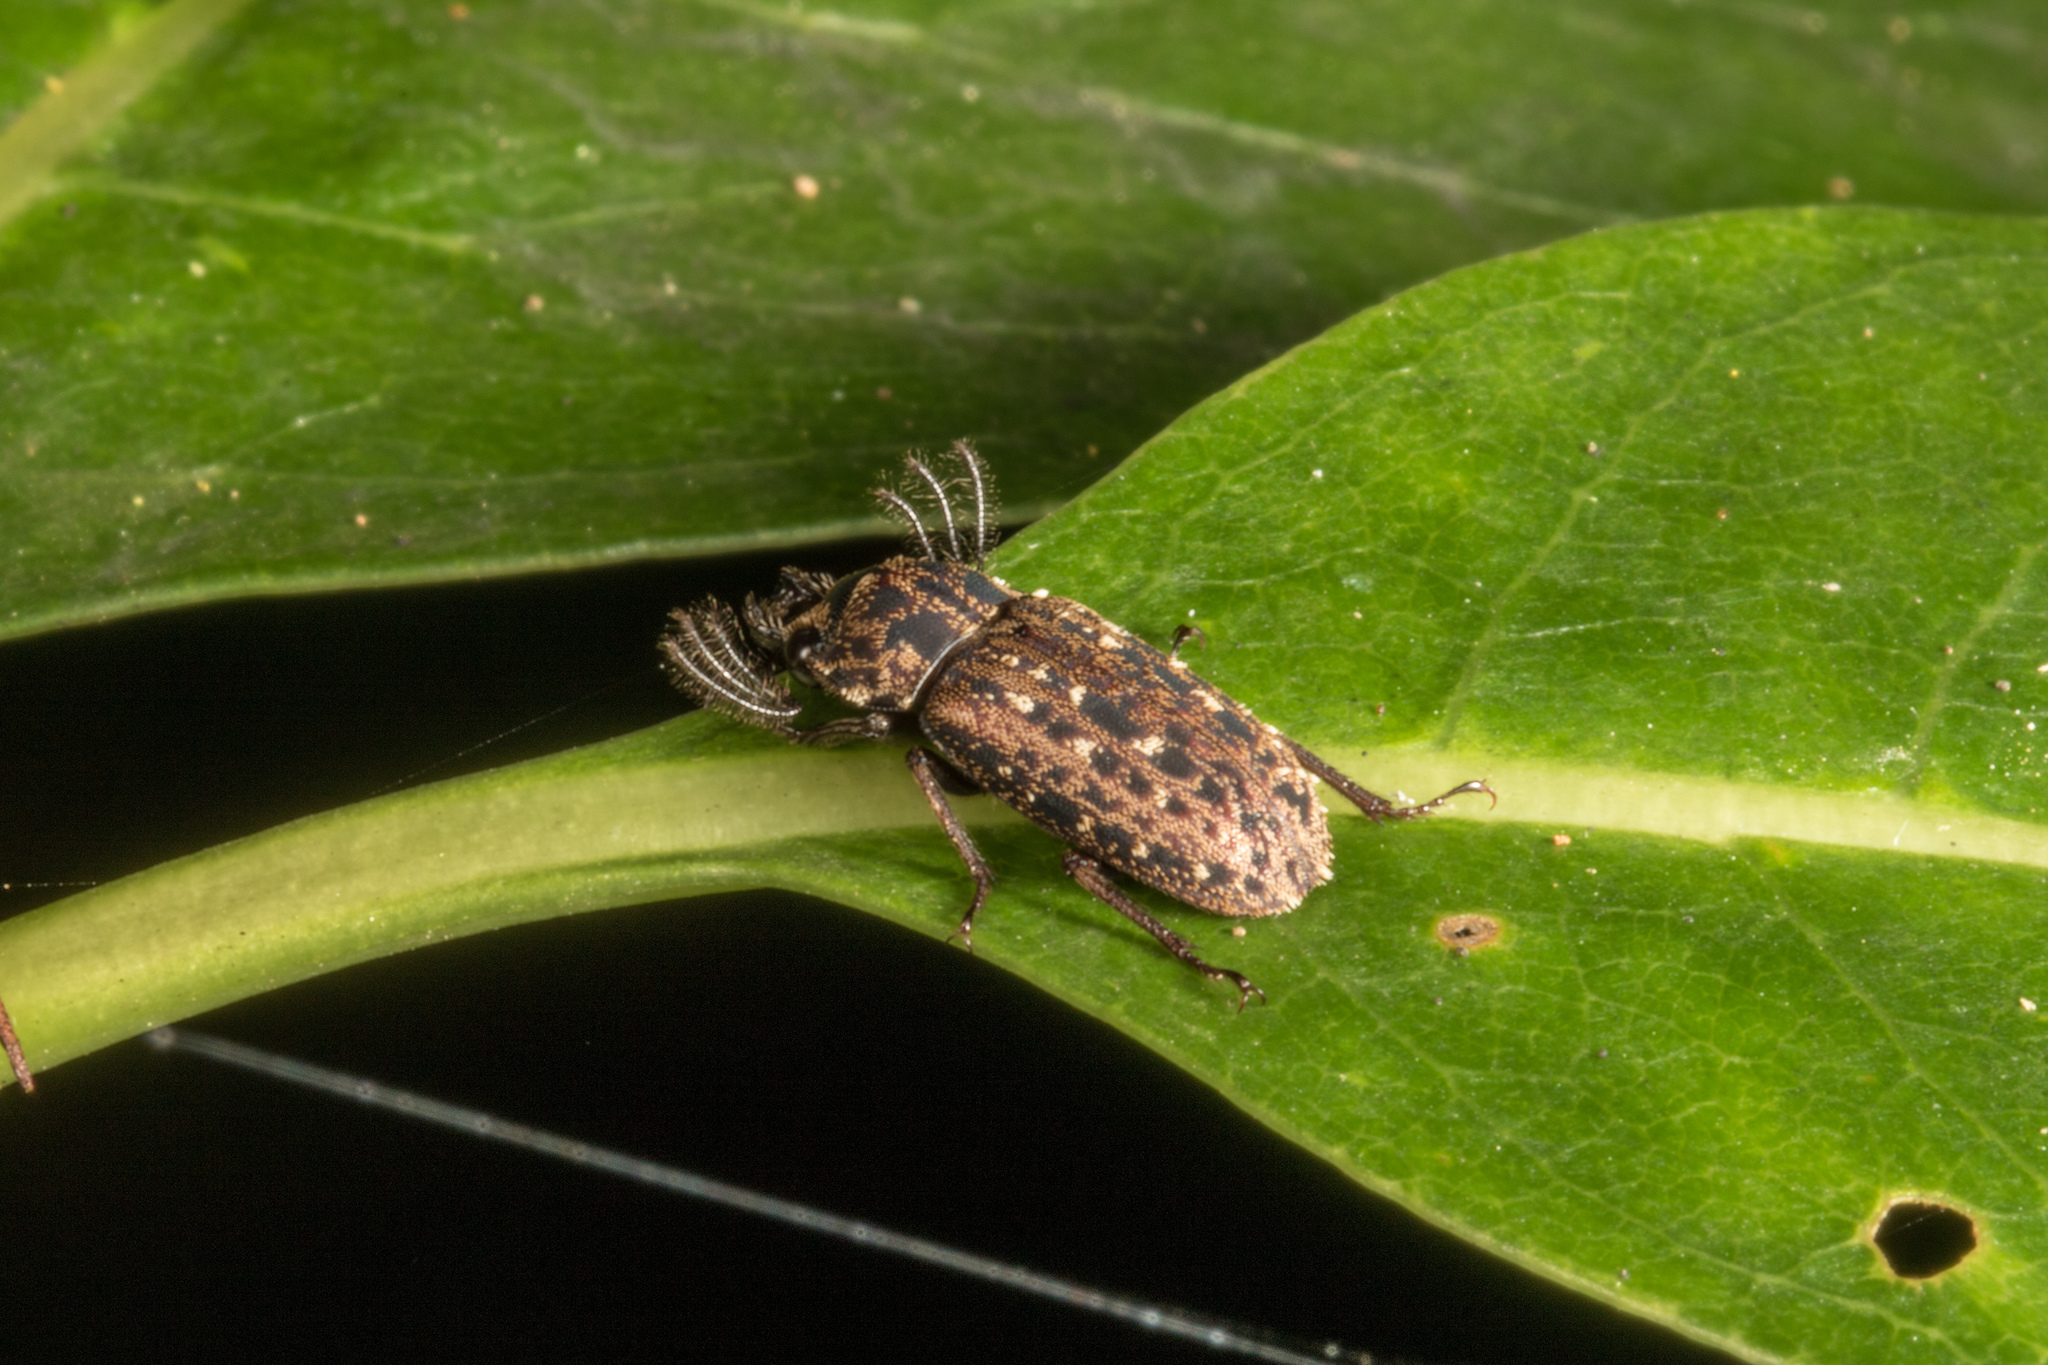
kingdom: Animalia
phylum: Arthropoda
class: Insecta
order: Coleoptera
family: Lucanidae
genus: Mitophyllus
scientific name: Mitophyllus arcuatus
